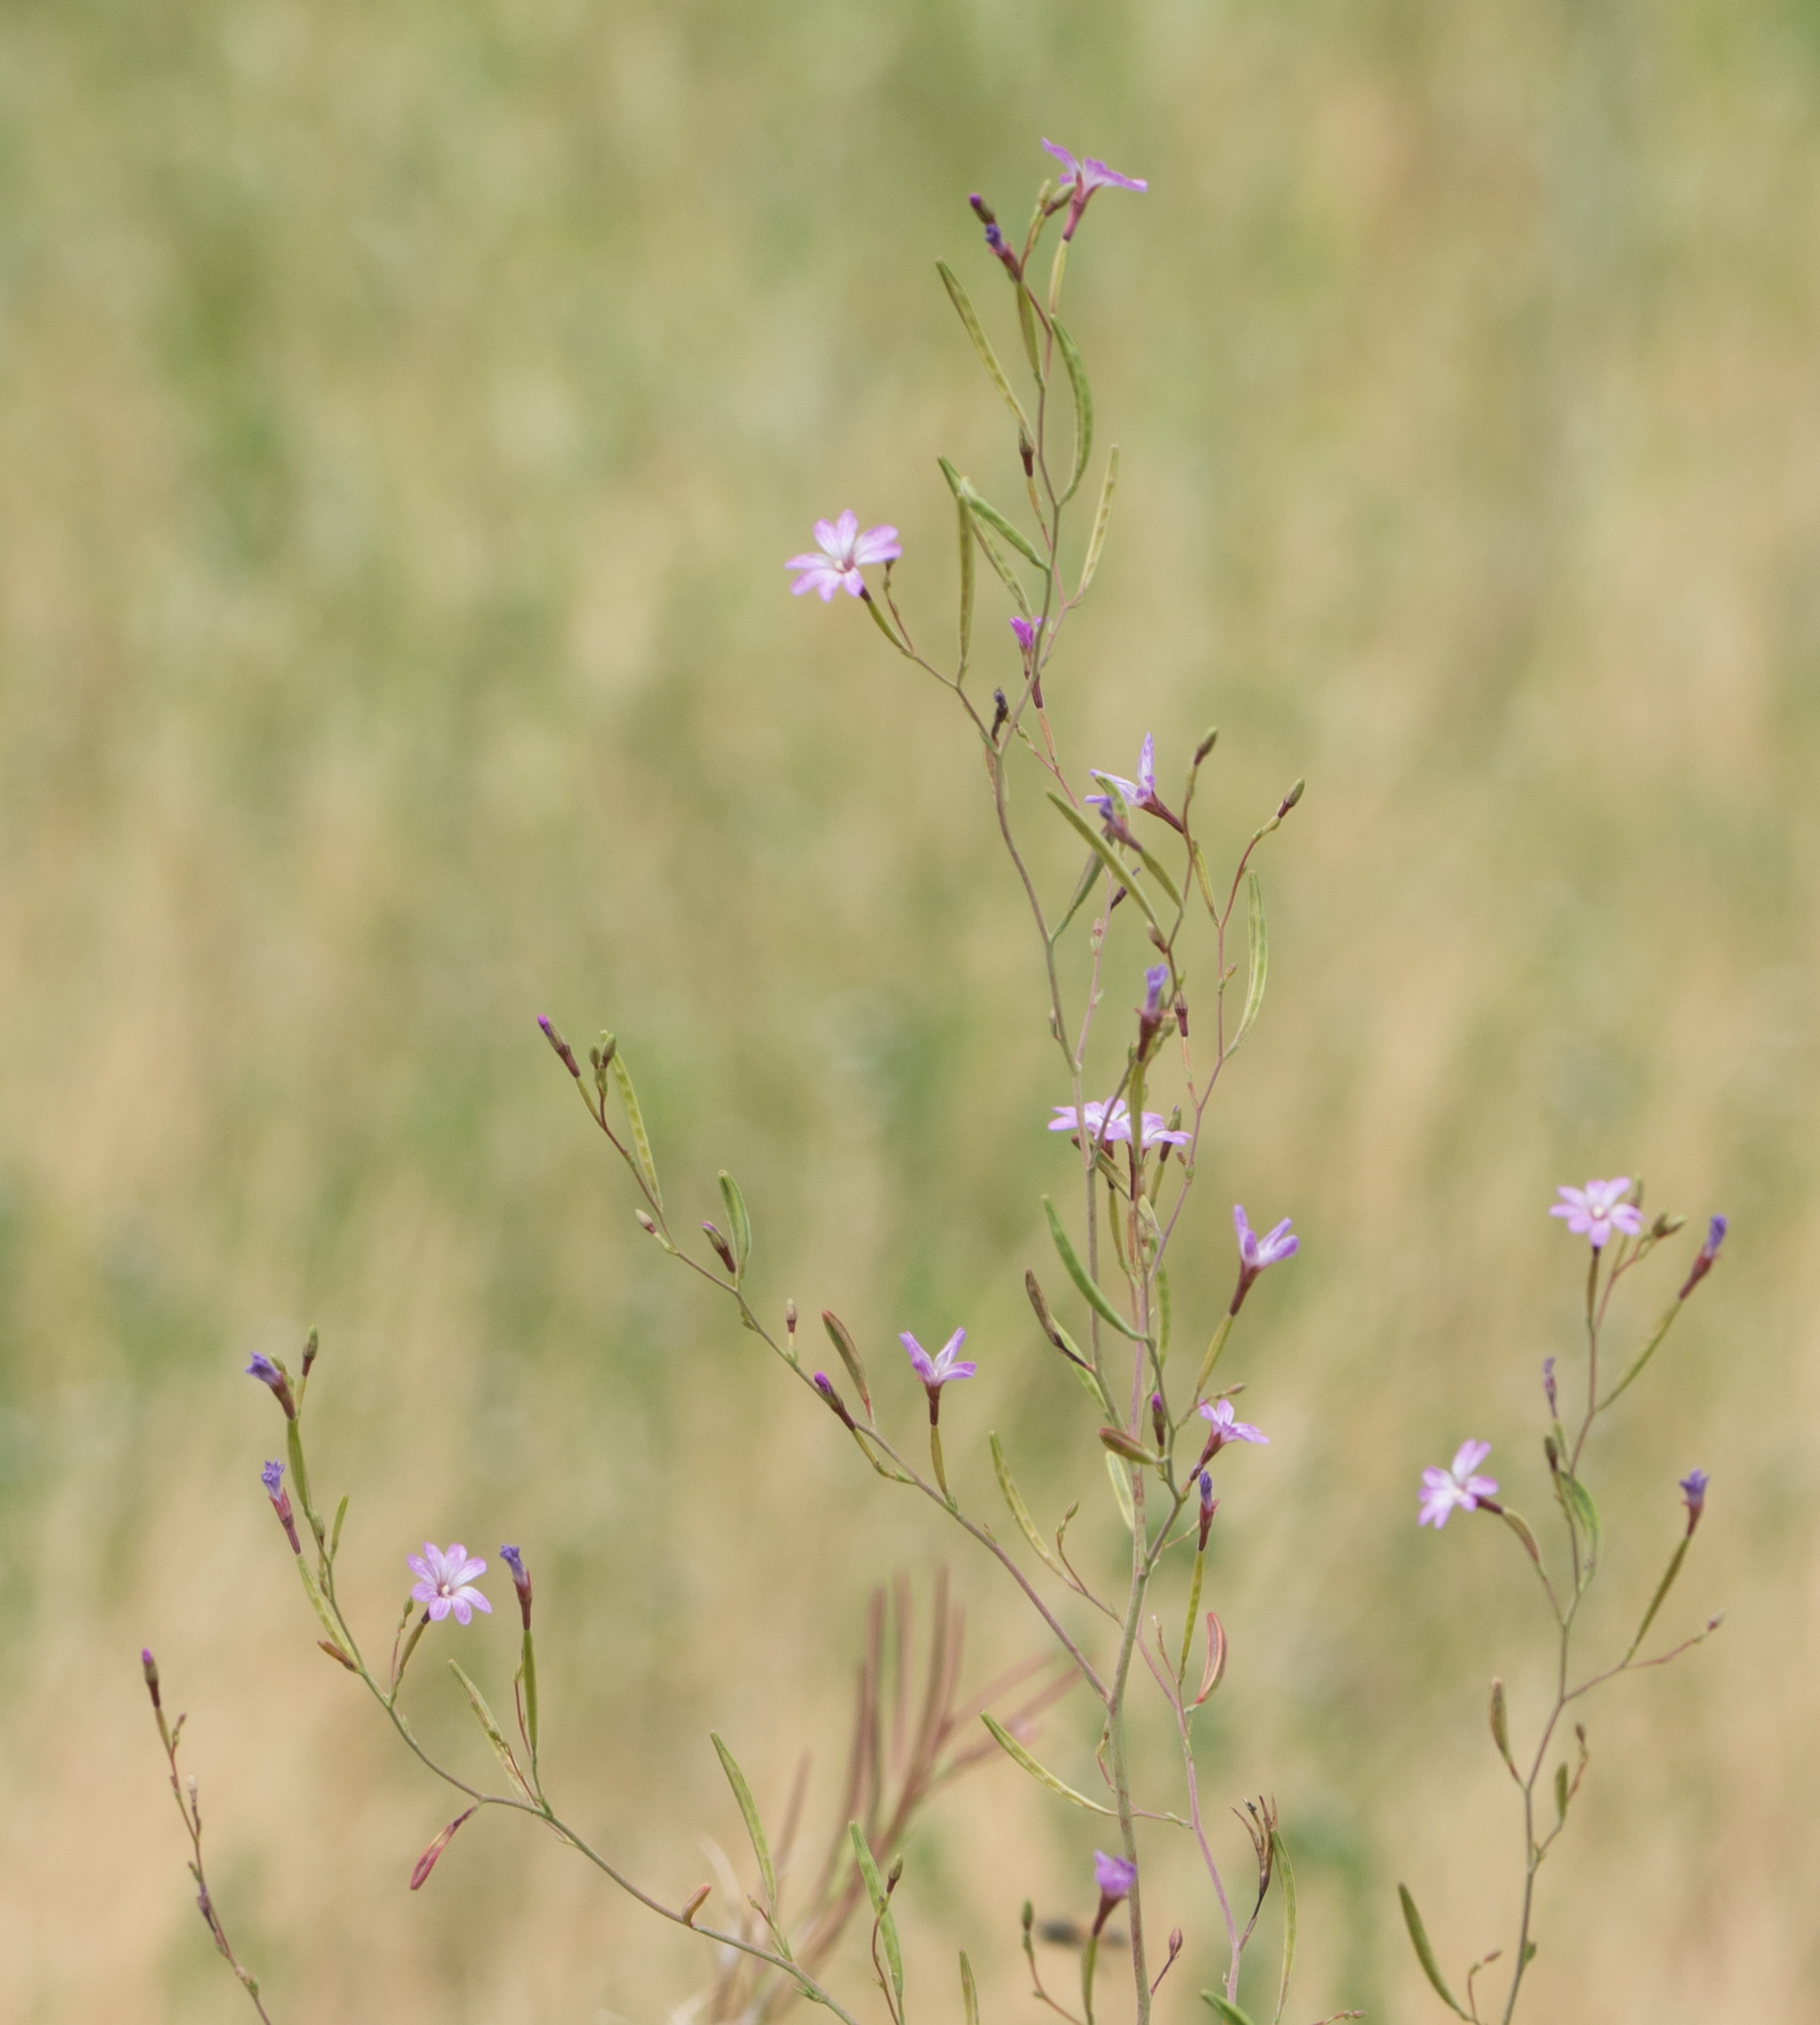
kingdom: Plantae
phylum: Tracheophyta
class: Magnoliopsida
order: Myrtales
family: Onagraceae
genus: Epilobium
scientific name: Epilobium brachycarpum
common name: Annual willowherb
